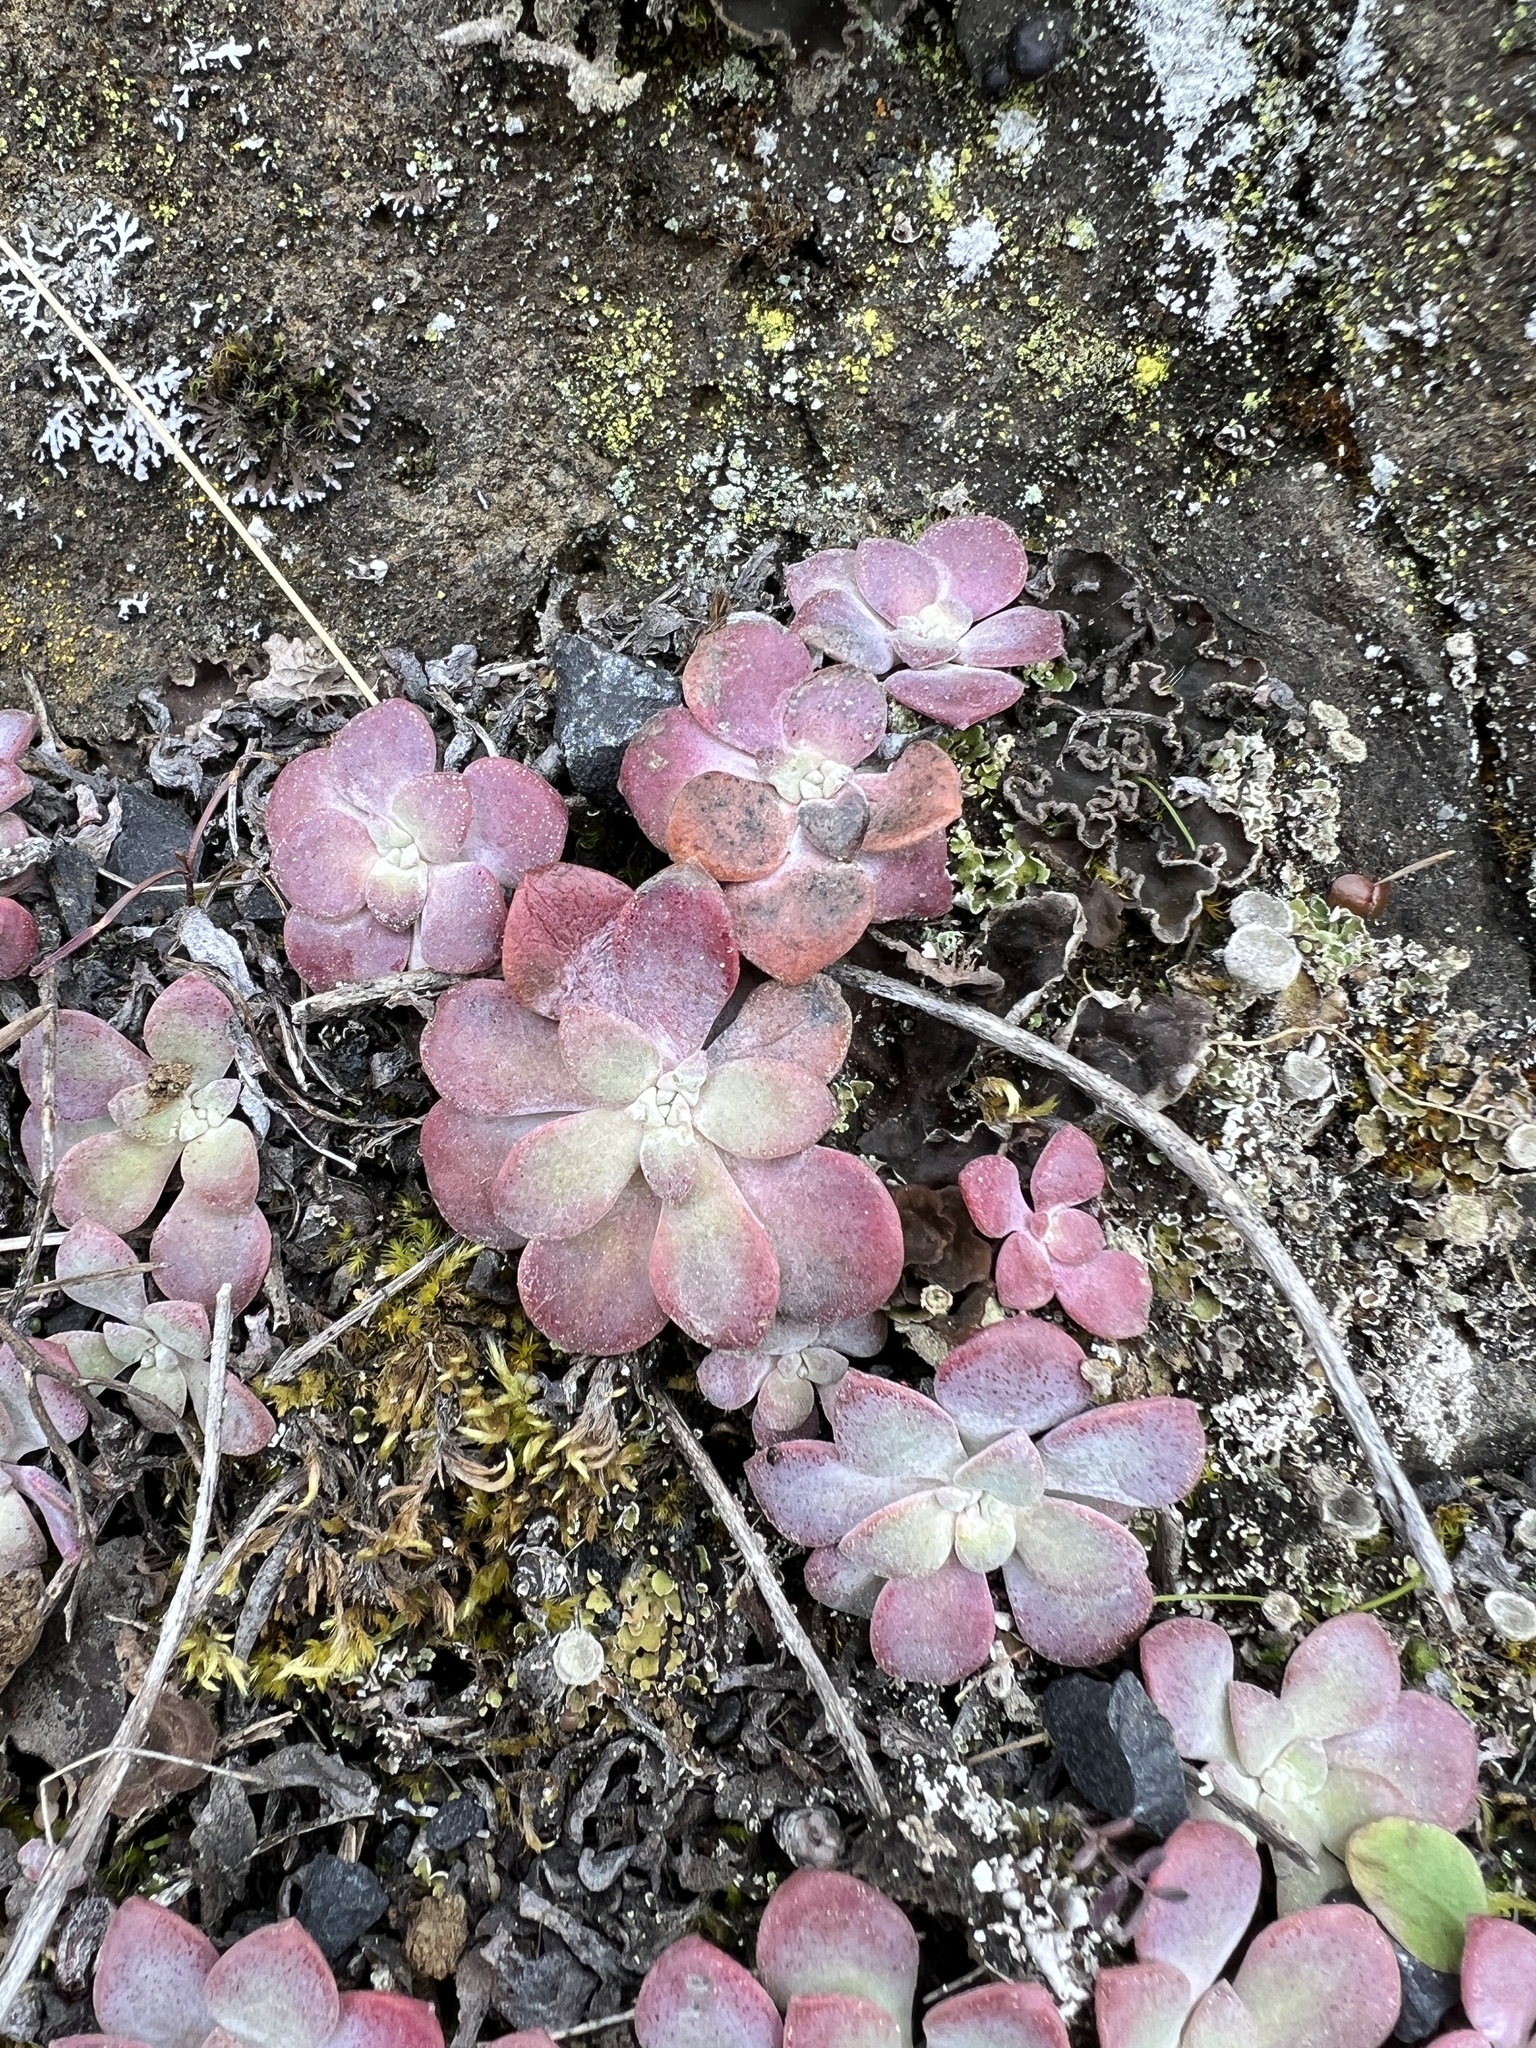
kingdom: Plantae
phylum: Tracheophyta
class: Magnoliopsida
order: Saxifragales
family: Crassulaceae
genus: Sedum
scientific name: Sedum spathulifolium
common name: Colorado stonecrop
